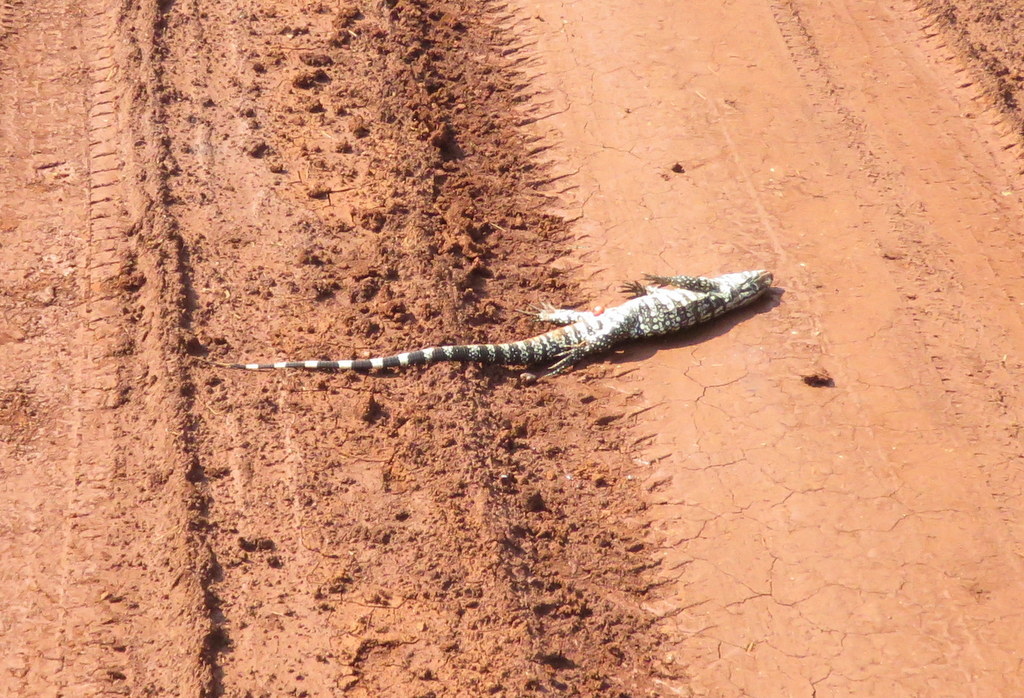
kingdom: Animalia
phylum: Chordata
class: Squamata
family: Teiidae
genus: Salvator
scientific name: Salvator merianae
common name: Argentine black and white tegu
